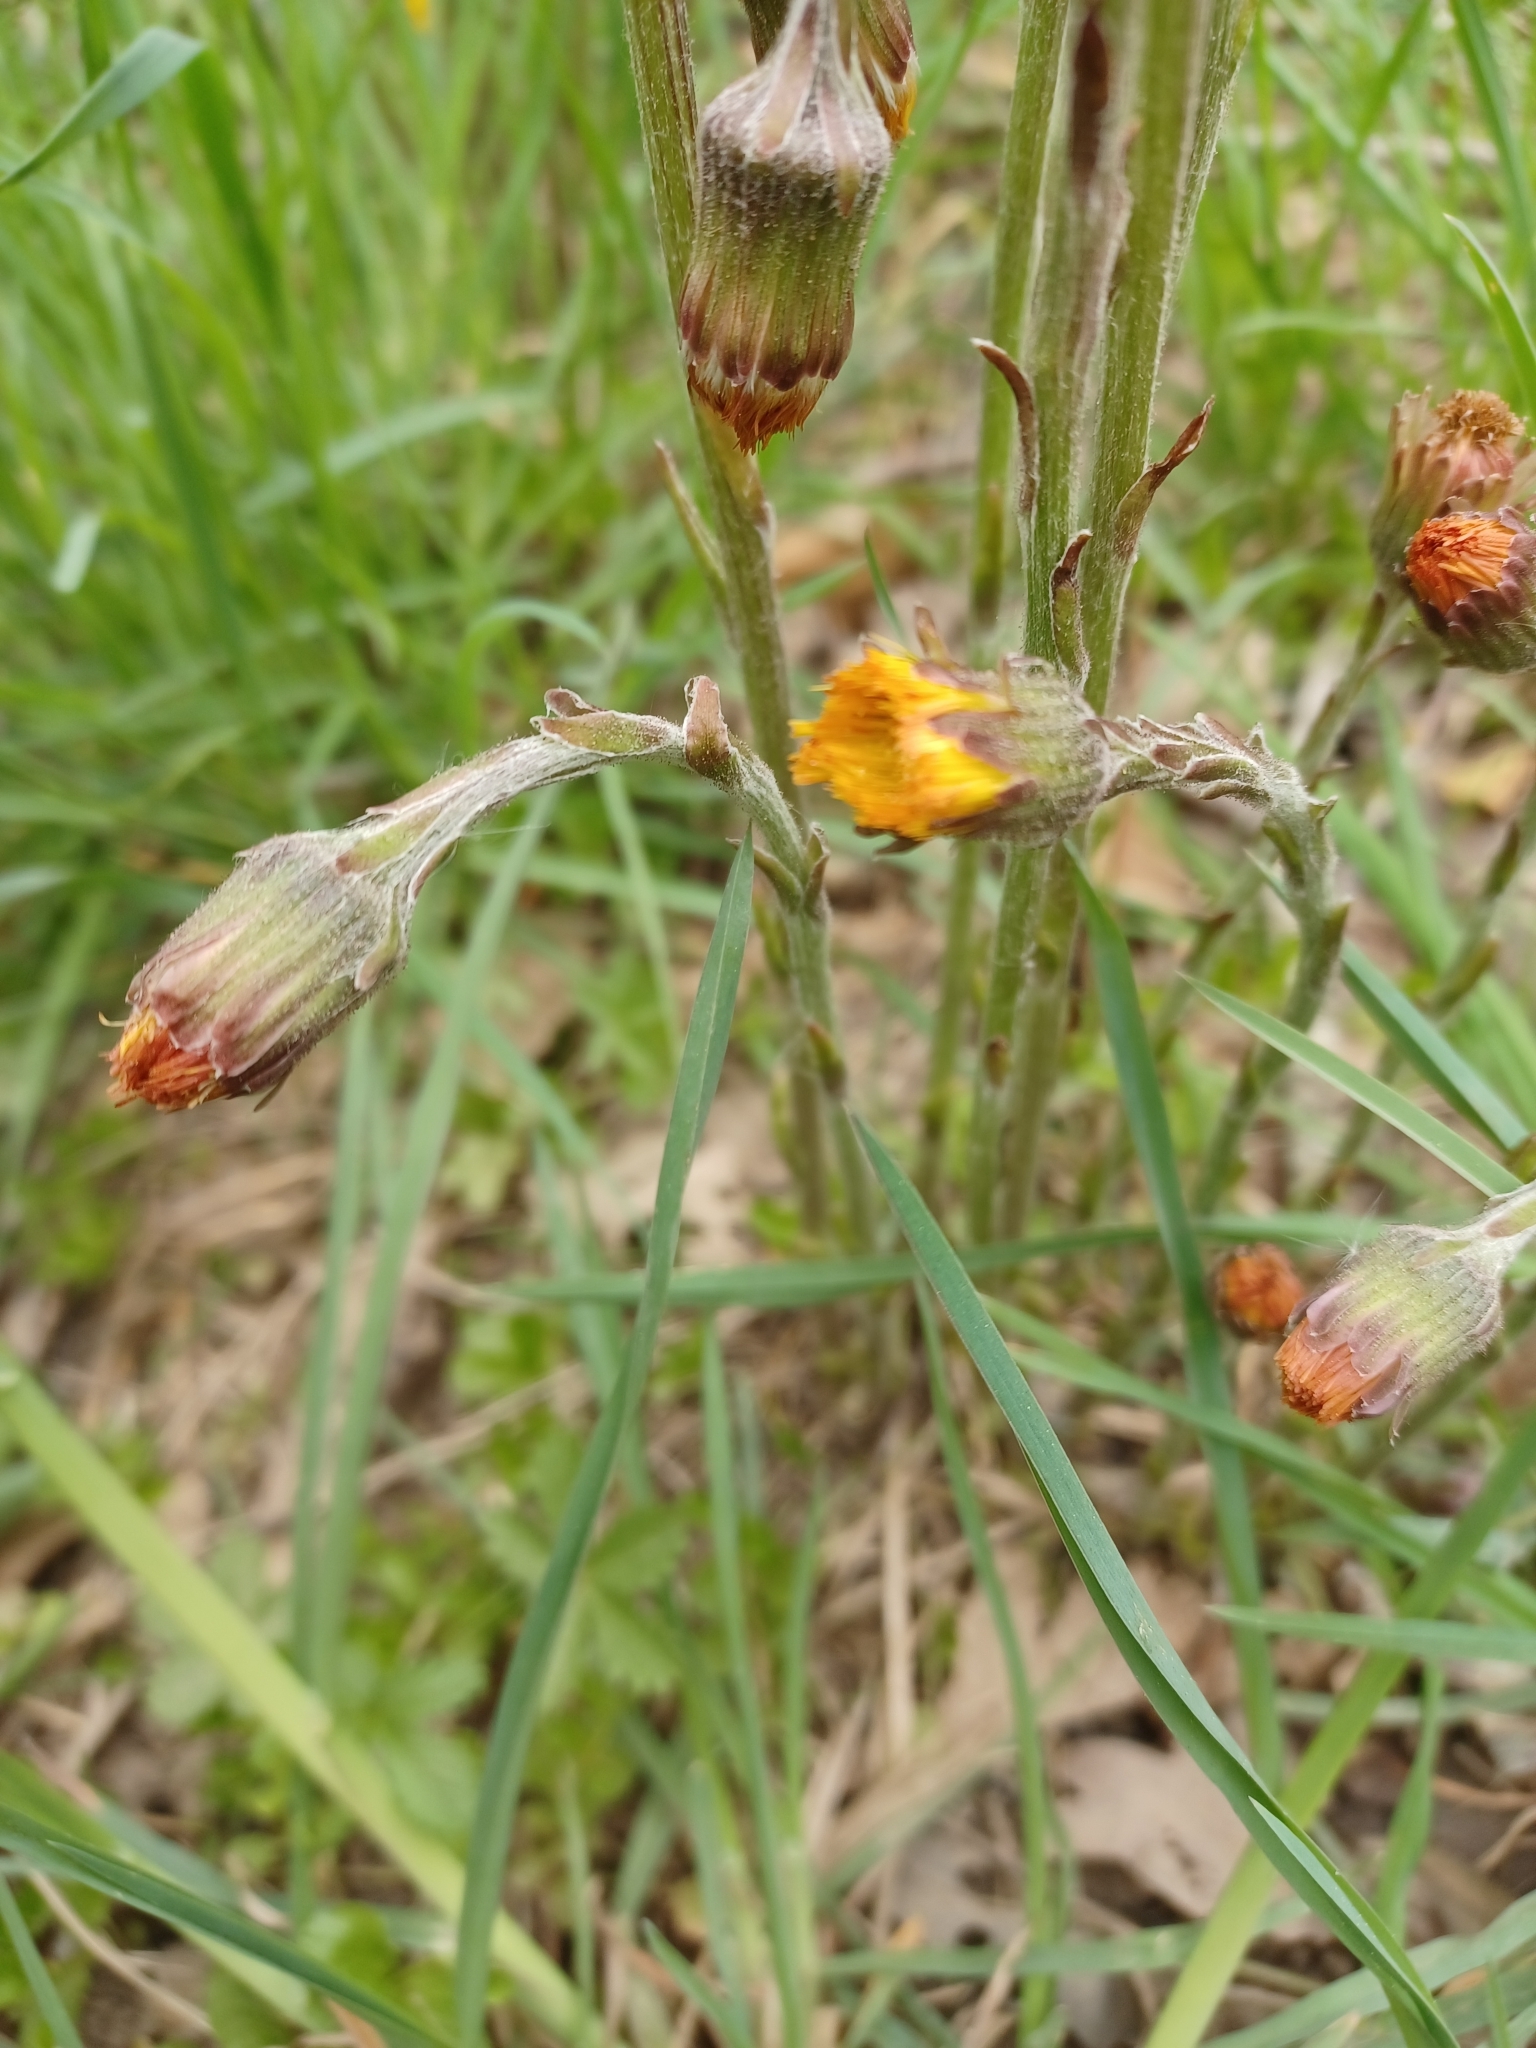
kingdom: Plantae
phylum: Tracheophyta
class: Magnoliopsida
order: Asterales
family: Asteraceae
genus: Tussilago
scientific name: Tussilago farfara
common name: Coltsfoot
